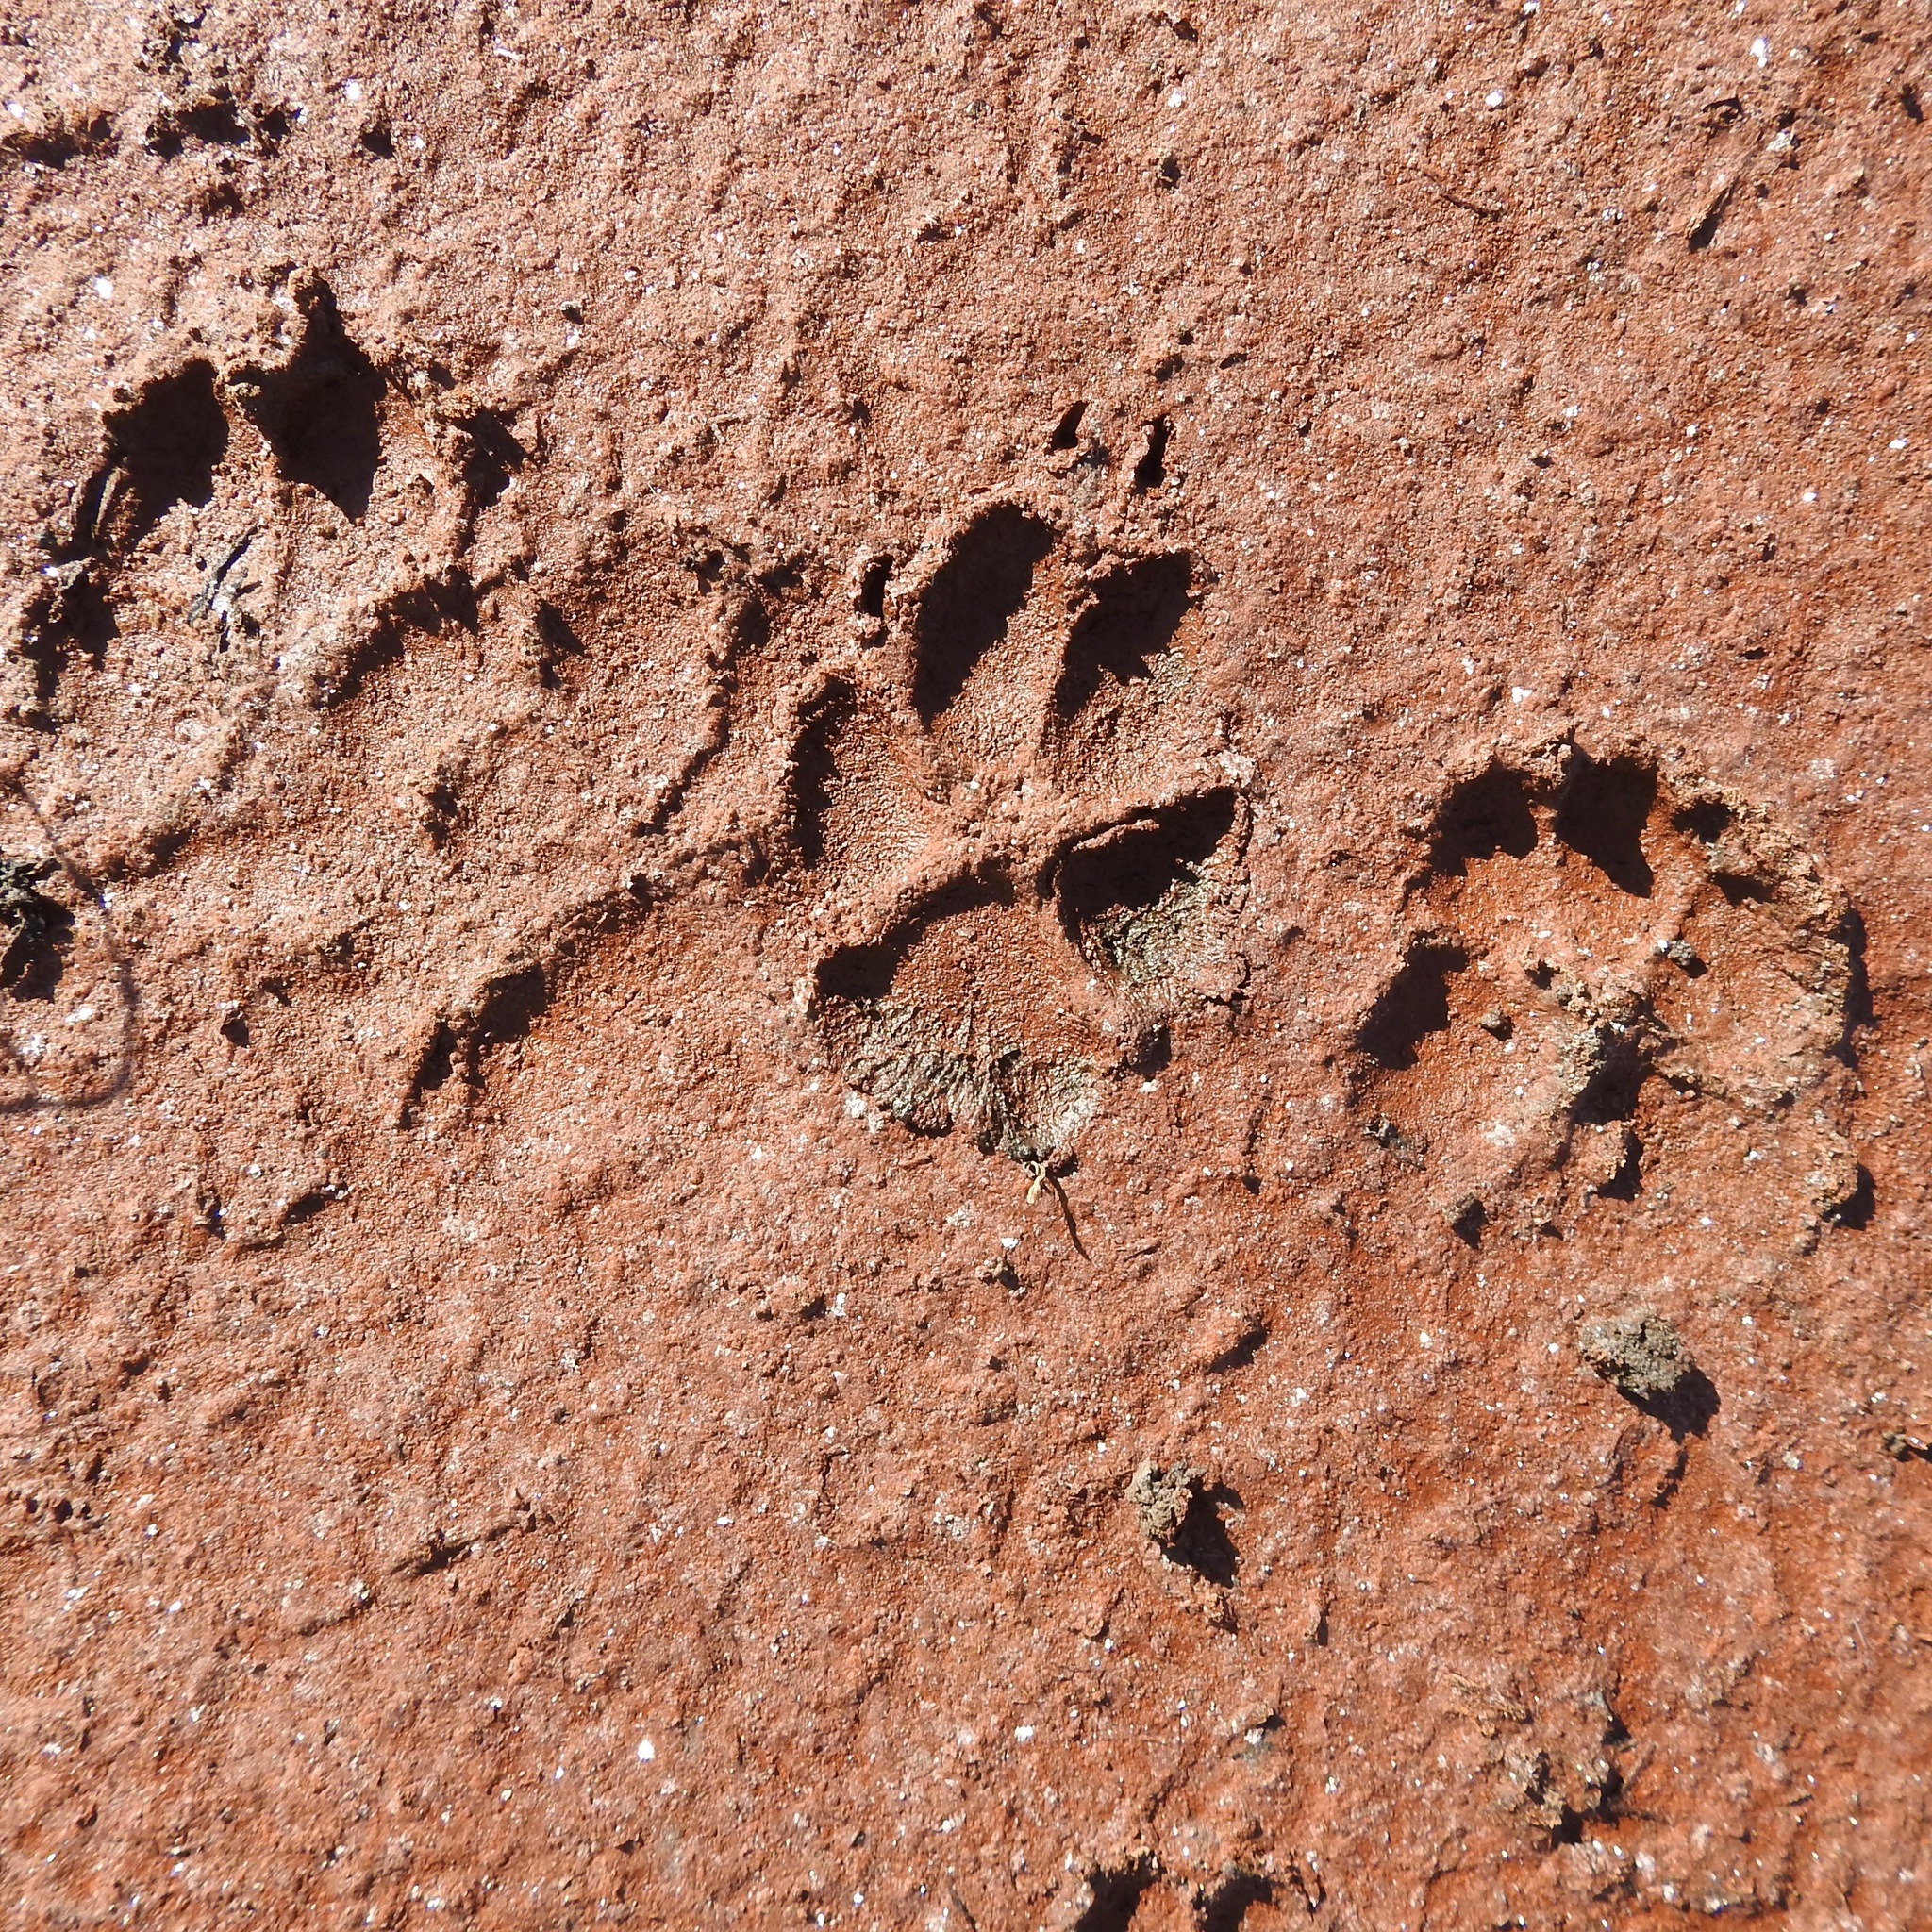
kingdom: Animalia
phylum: Chordata
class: Mammalia
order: Carnivora
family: Canidae
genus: Canis
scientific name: Canis latrans
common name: Coyote
